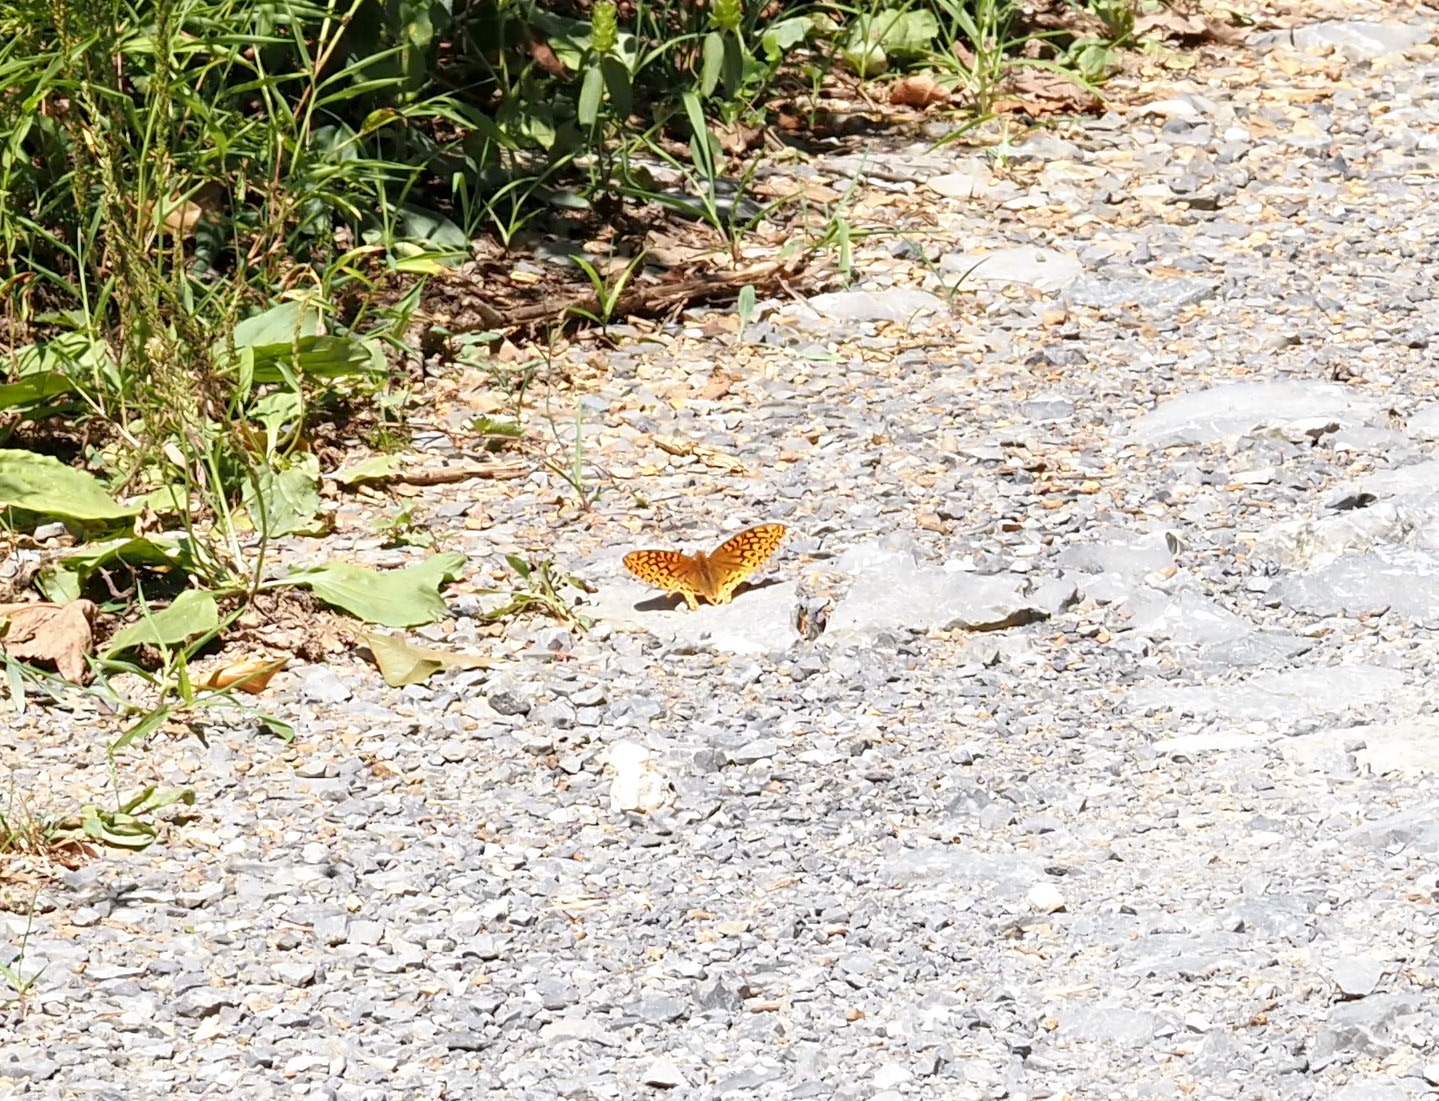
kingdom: Animalia
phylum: Arthropoda
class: Insecta
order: Lepidoptera
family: Nymphalidae
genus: Speyeria
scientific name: Speyeria cybele
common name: Great spangled fritillary
